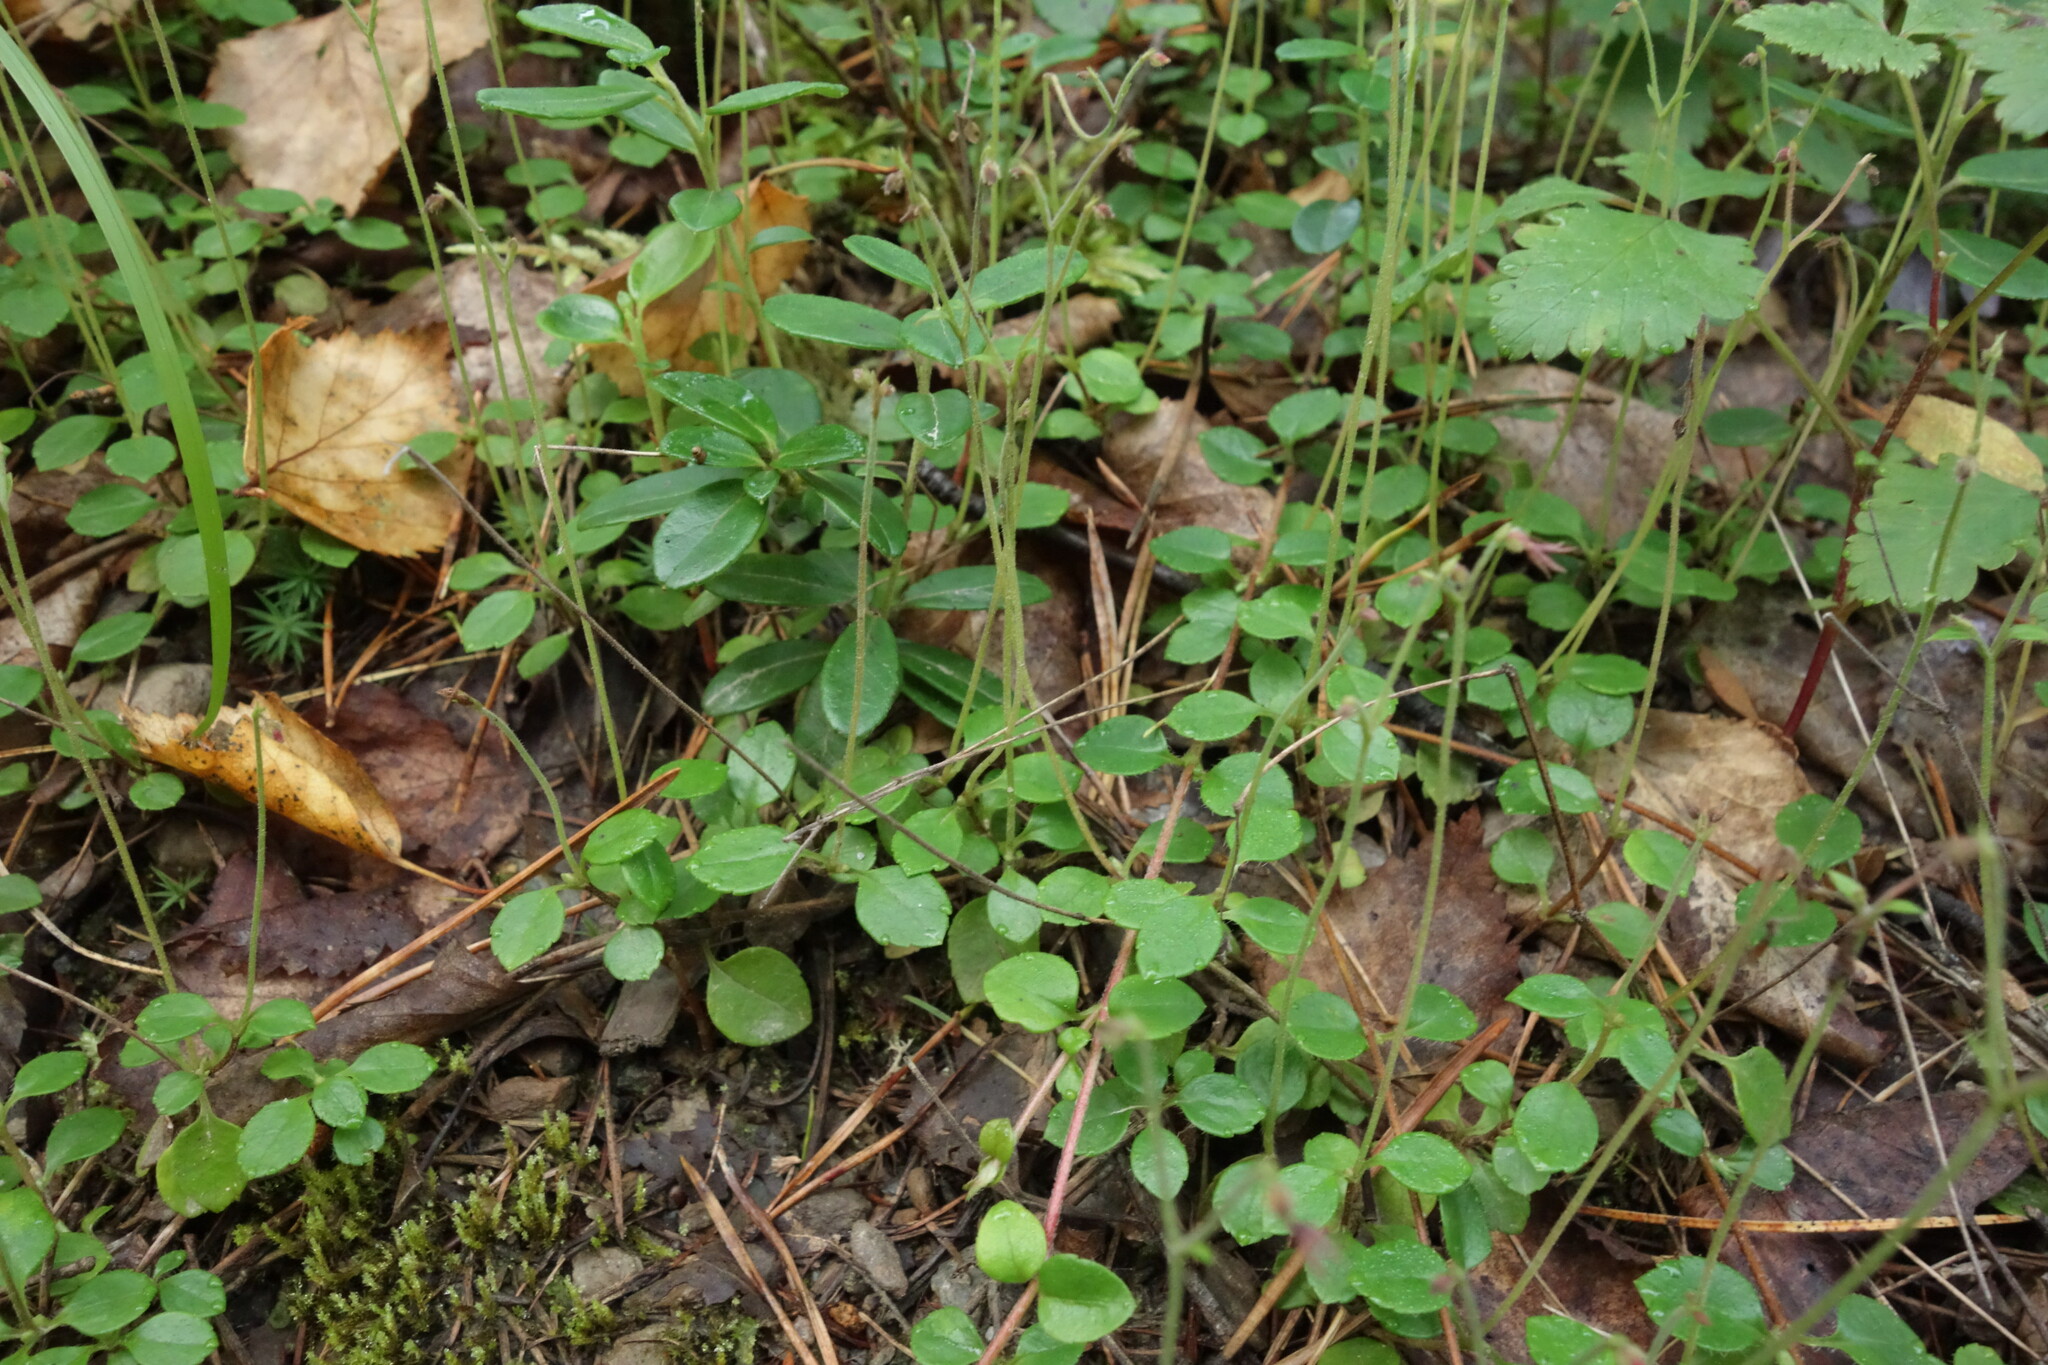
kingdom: Plantae
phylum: Tracheophyta
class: Magnoliopsida
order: Dipsacales
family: Caprifoliaceae
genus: Linnaea
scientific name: Linnaea borealis
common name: Twinflower
